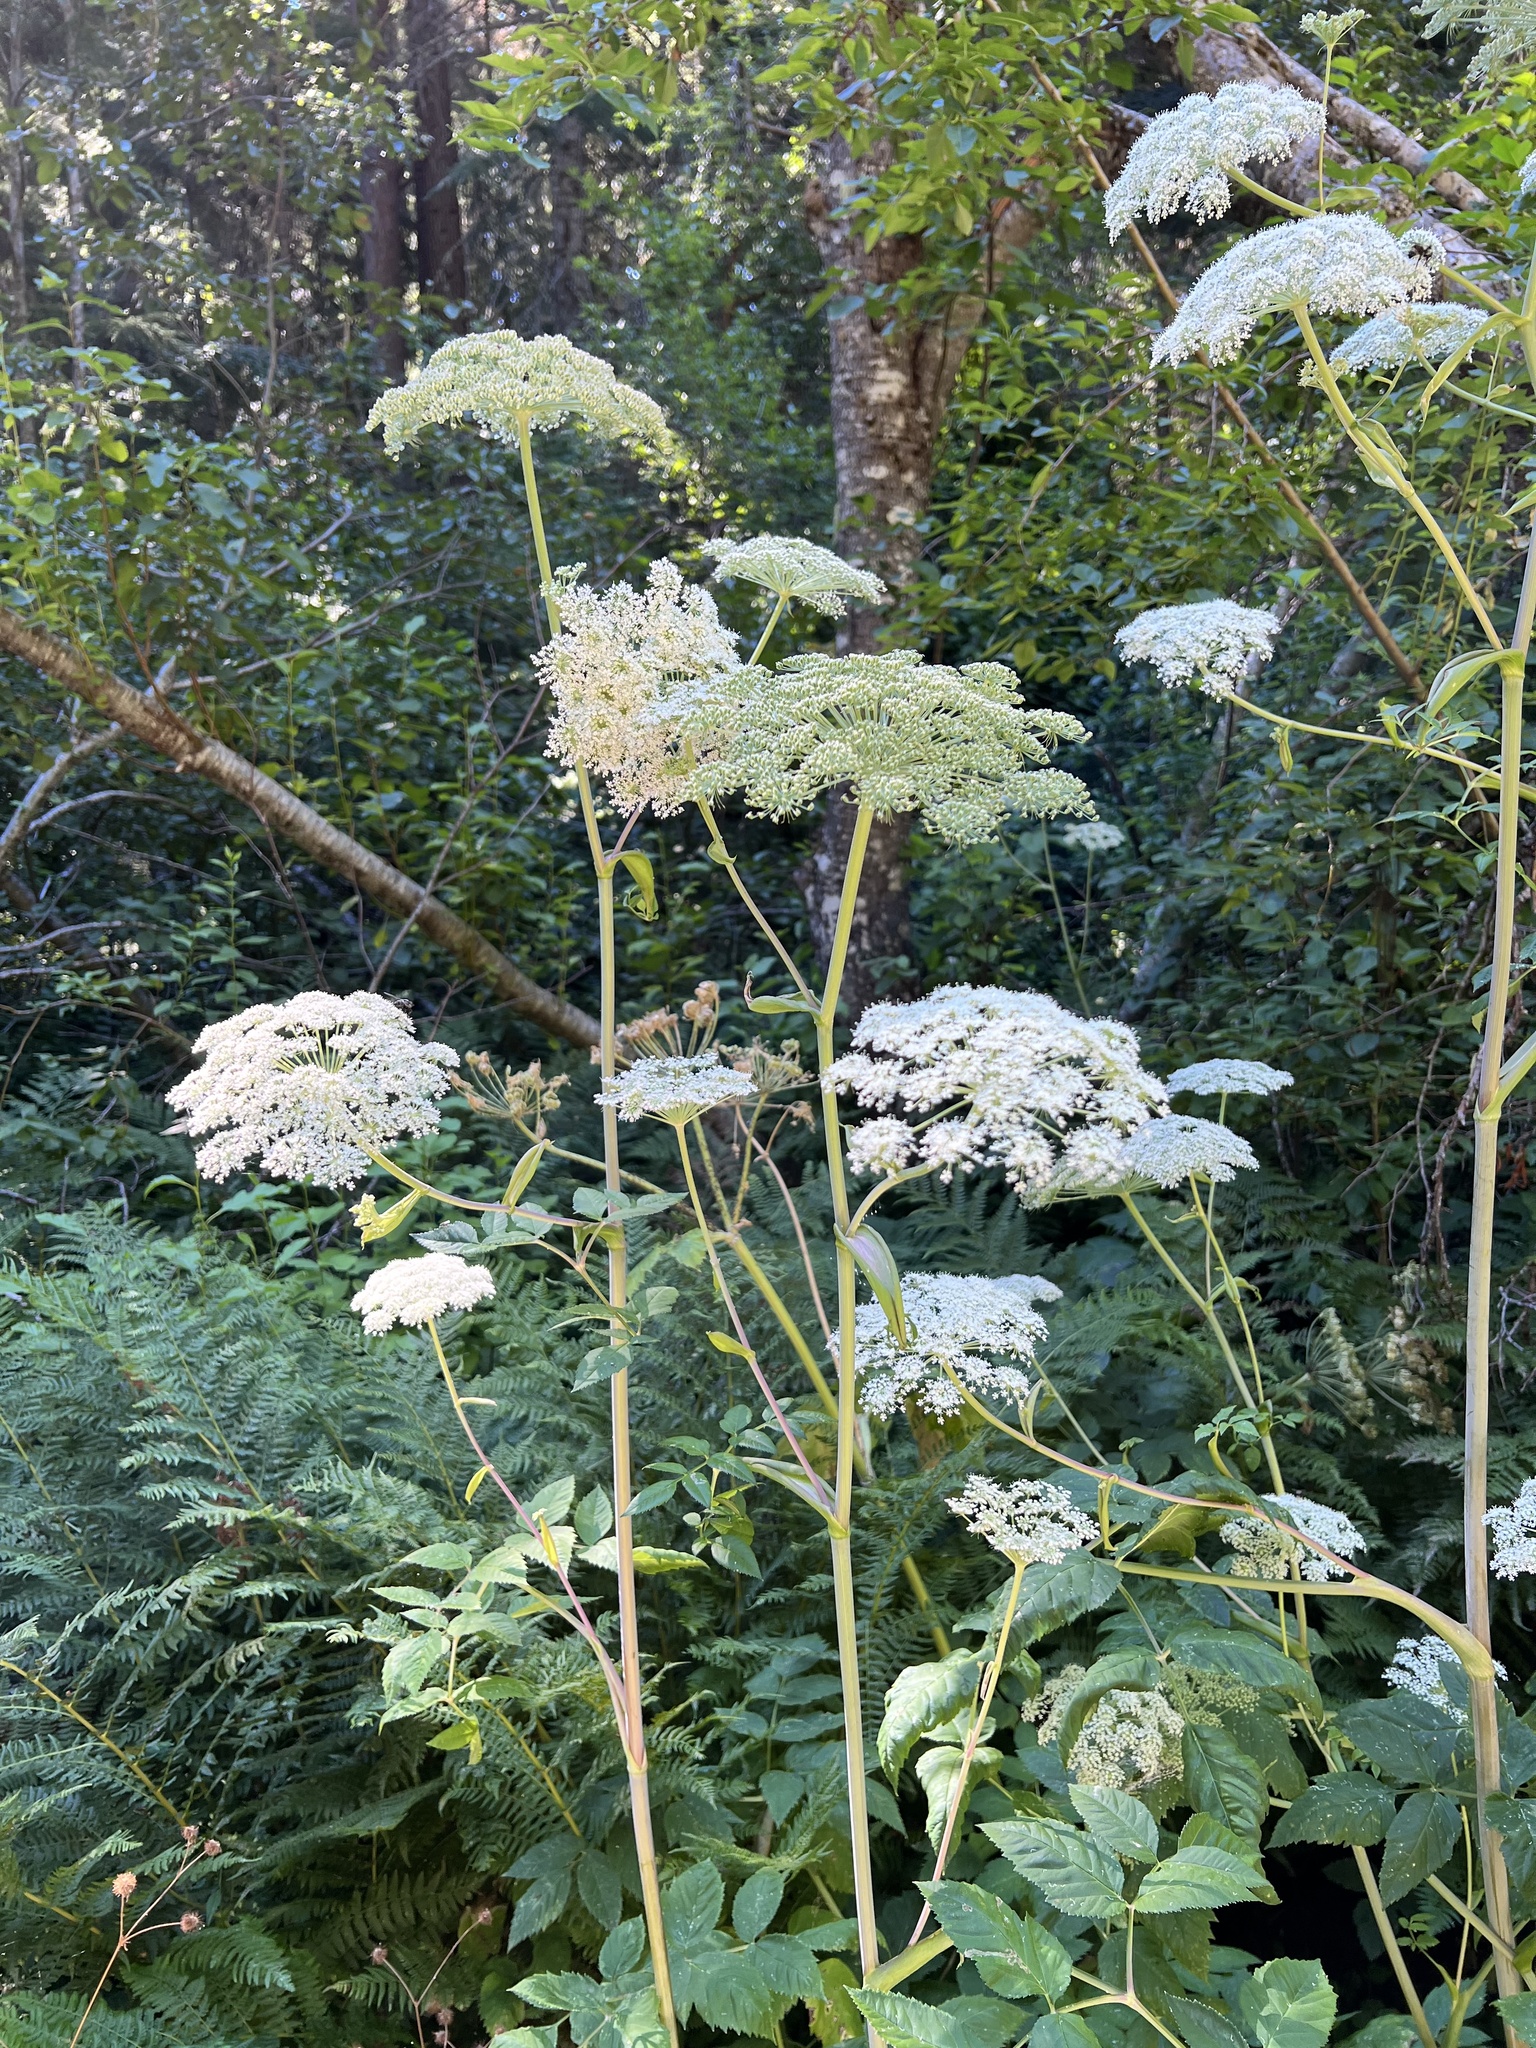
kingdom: Plantae
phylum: Tracheophyta
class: Magnoliopsida
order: Apiales
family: Apiaceae
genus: Angelica
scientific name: Angelica genuflexa
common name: Kneeling angelica
